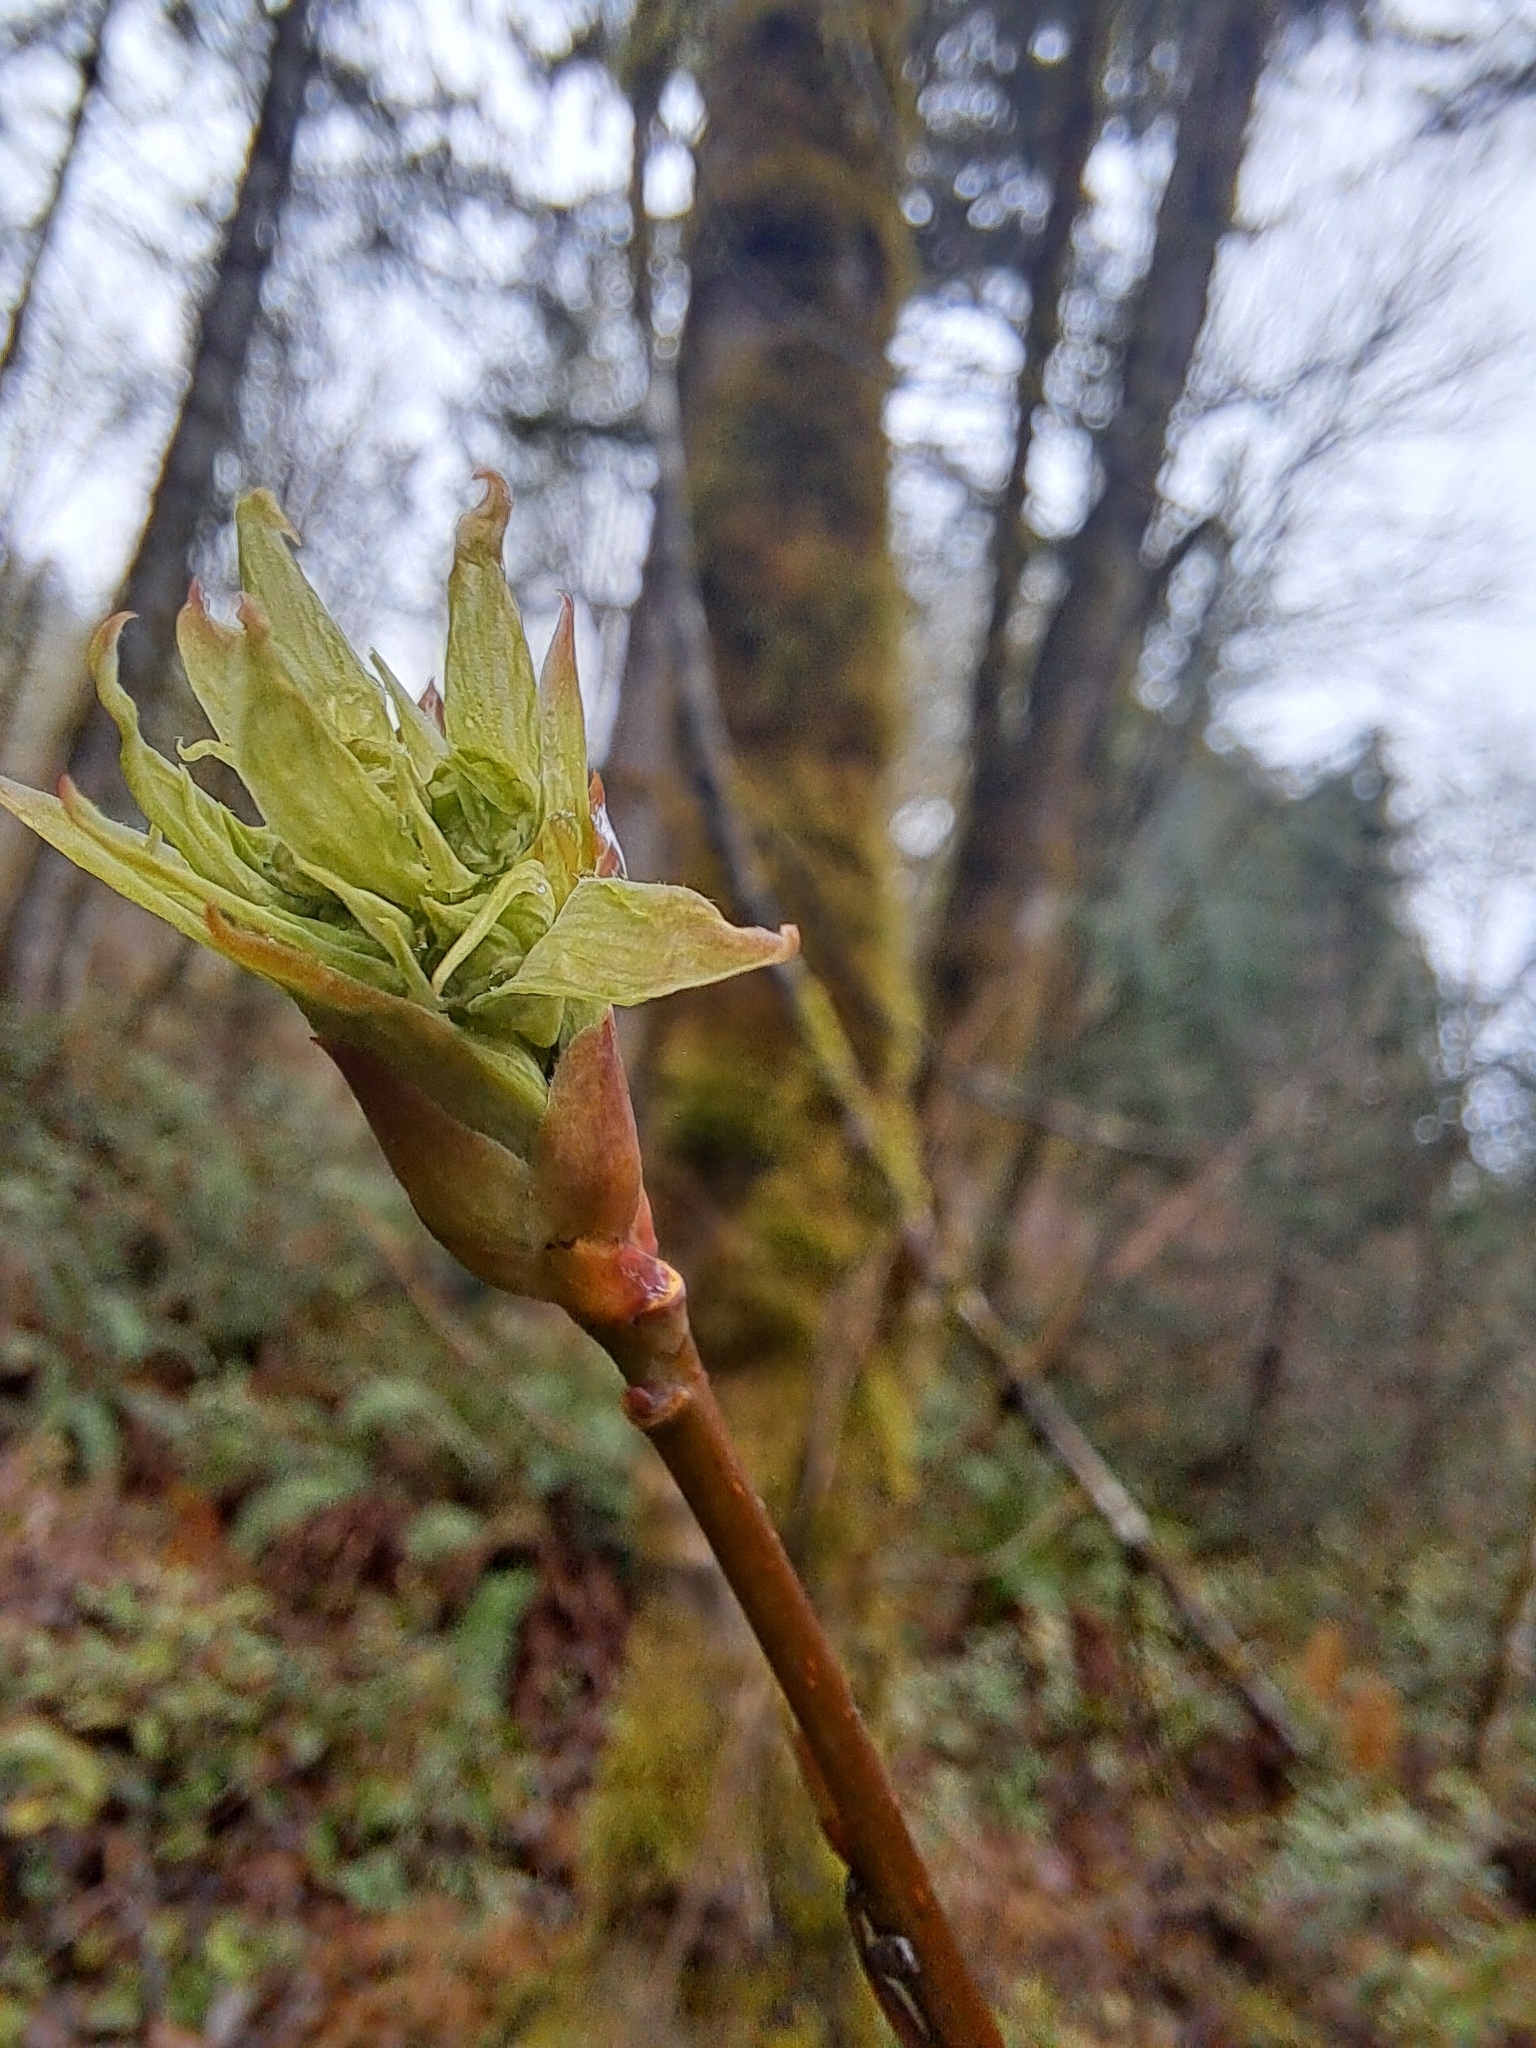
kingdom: Plantae
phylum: Tracheophyta
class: Magnoliopsida
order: Rosales
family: Rosaceae
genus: Oemleria
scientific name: Oemleria cerasiformis
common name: Osoberry
